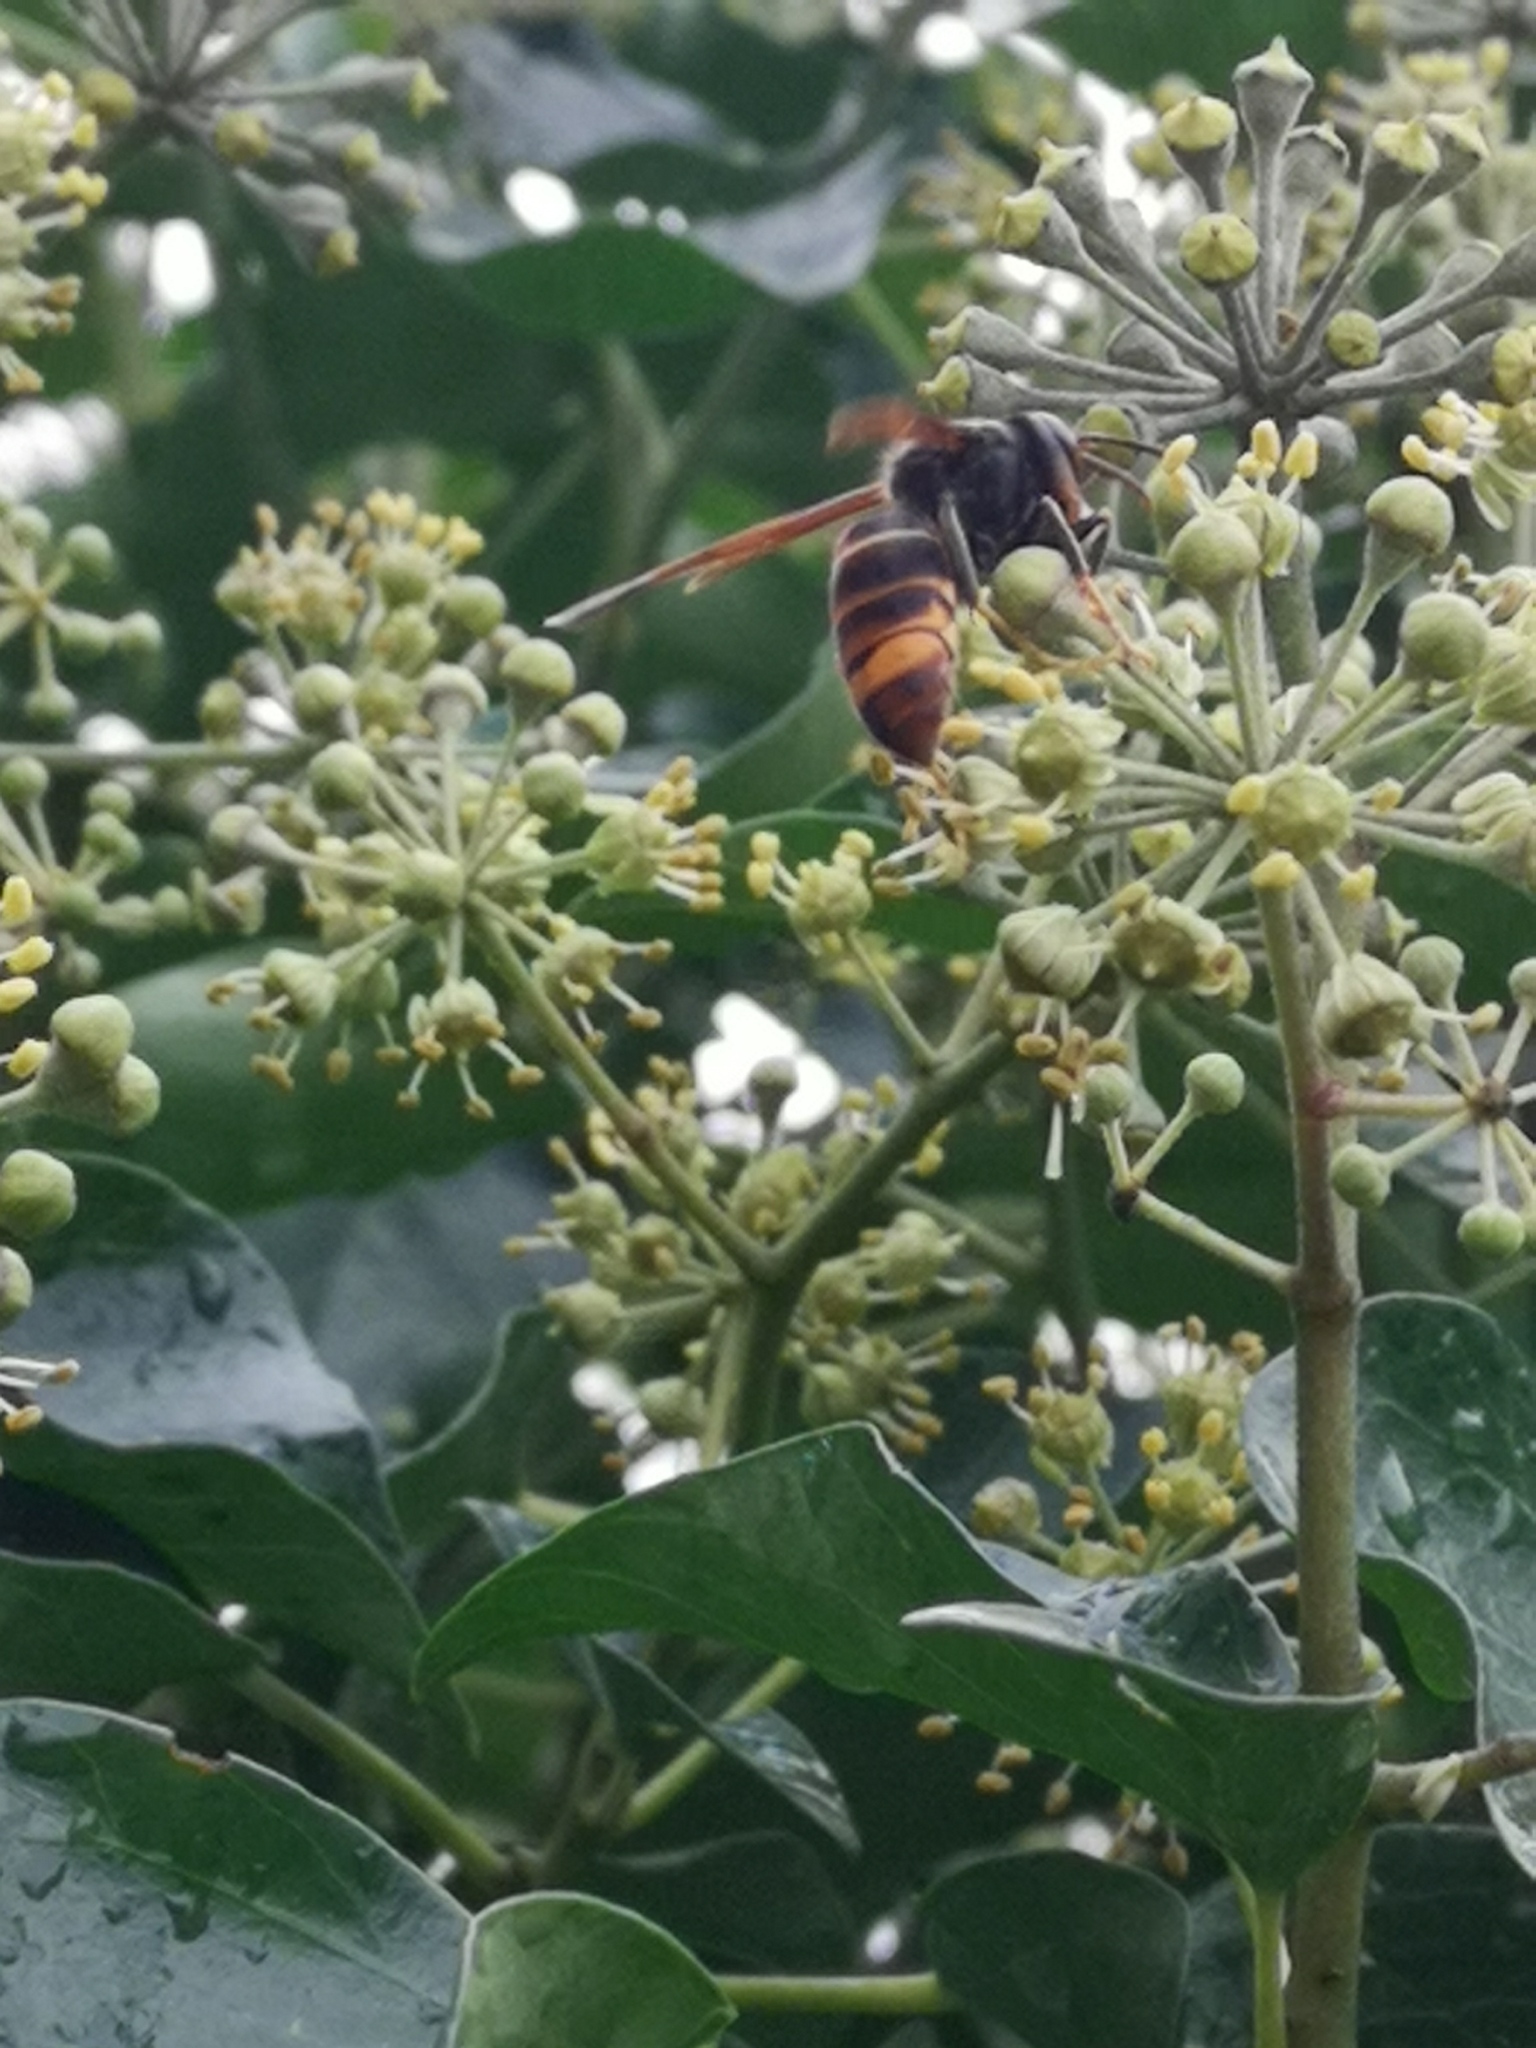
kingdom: Animalia
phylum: Arthropoda
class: Insecta
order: Hymenoptera
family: Vespidae
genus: Vespa
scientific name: Vespa velutina
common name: Asian hornet
